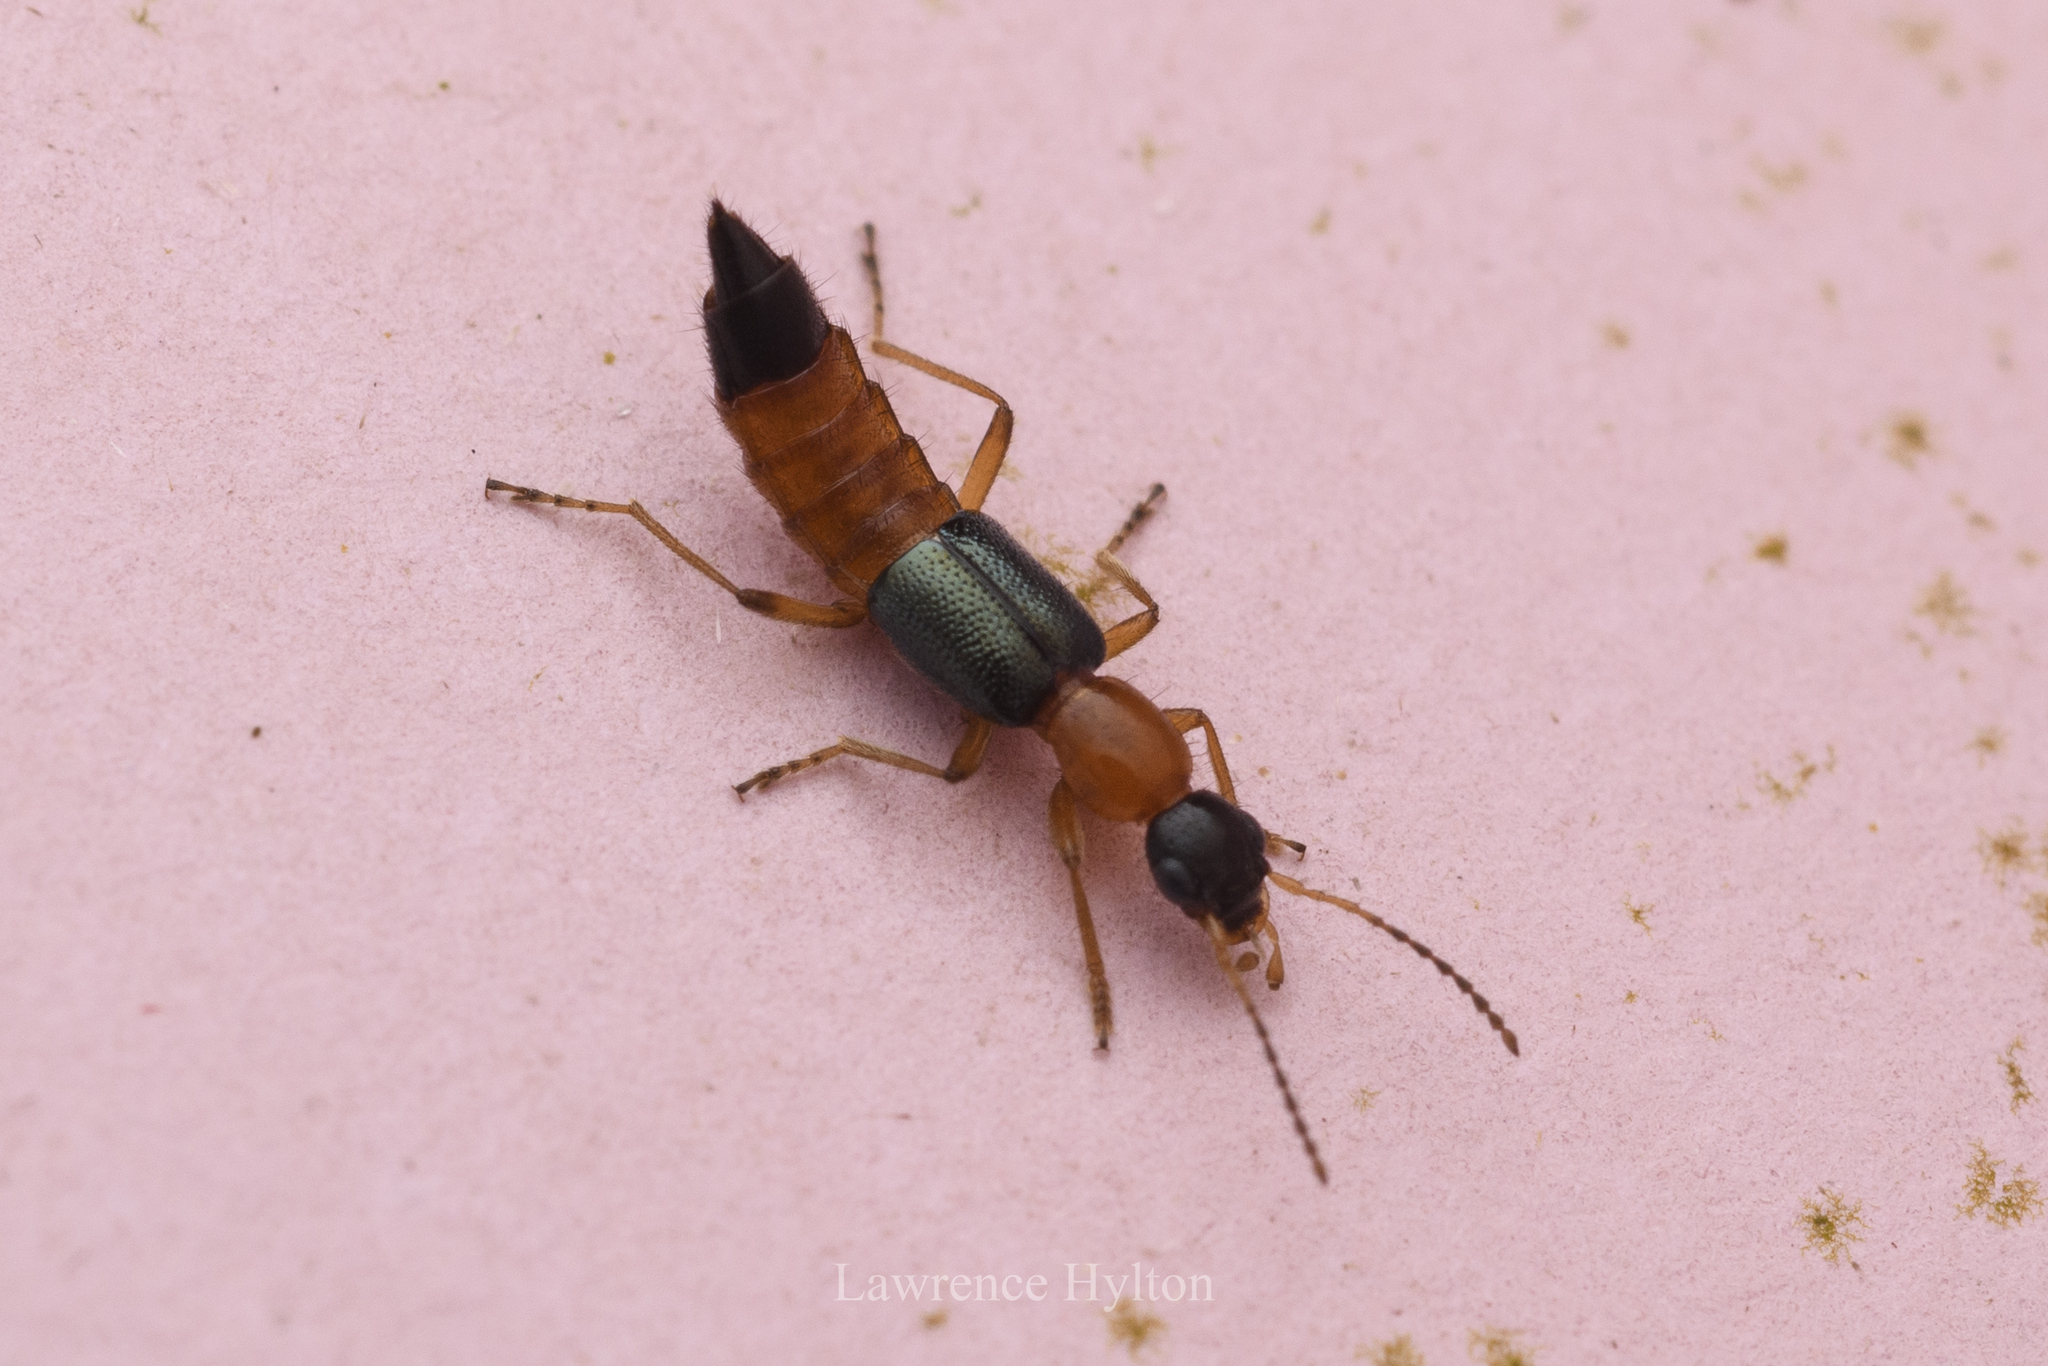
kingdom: Animalia
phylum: Arthropoda
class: Insecta
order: Coleoptera
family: Staphylinidae
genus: Paederus
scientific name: Paederus fuscipes
